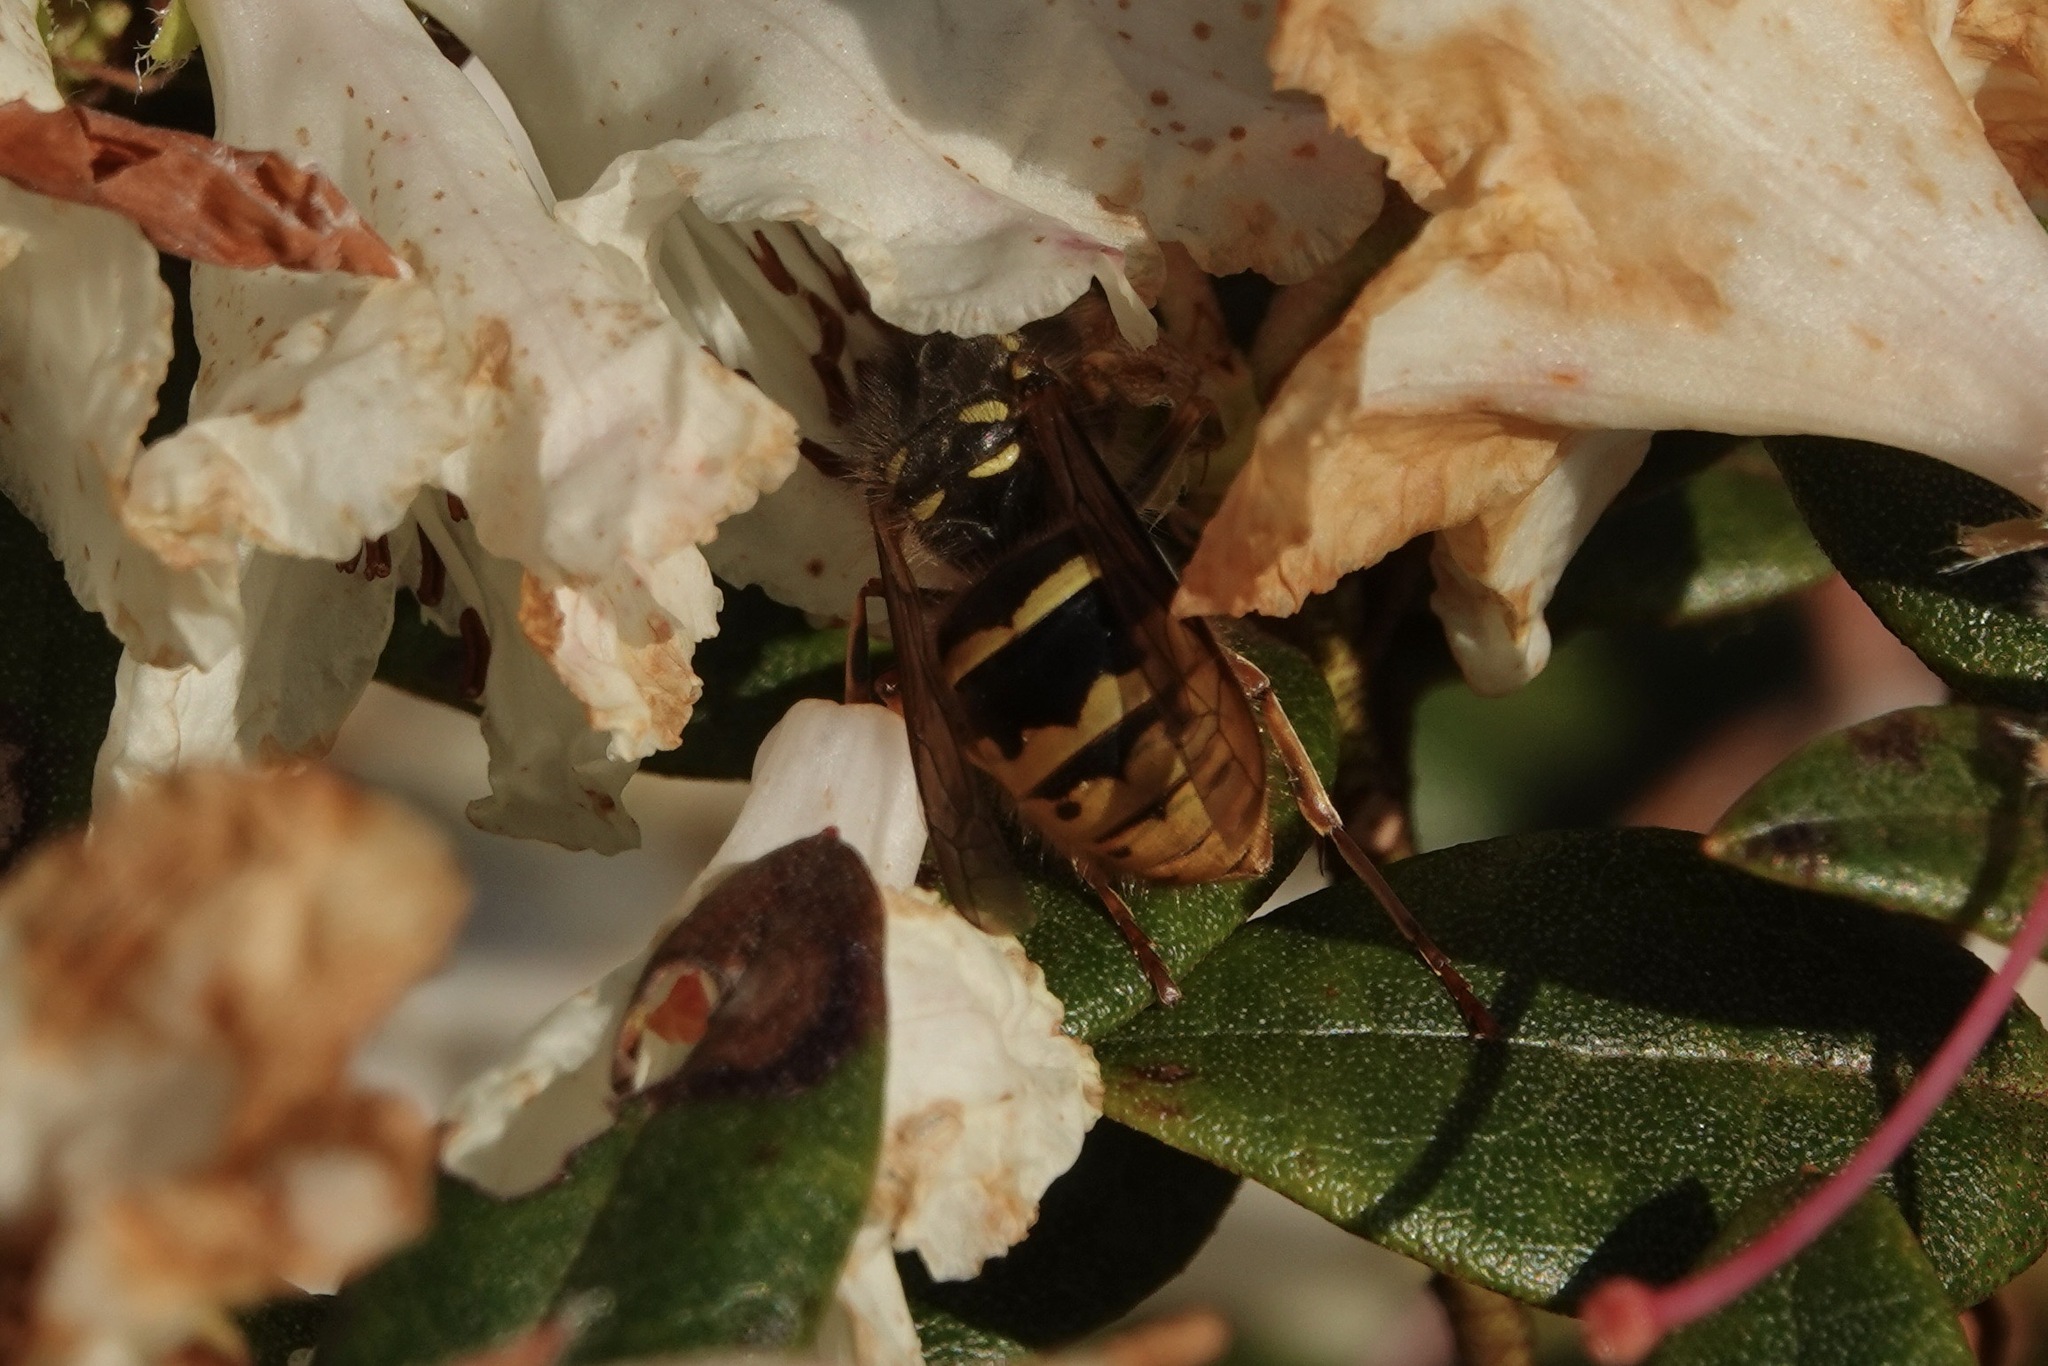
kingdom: Animalia
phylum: Arthropoda
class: Insecta
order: Hymenoptera
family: Vespidae
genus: Vespula
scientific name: Vespula vulgaris
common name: Common wasp
